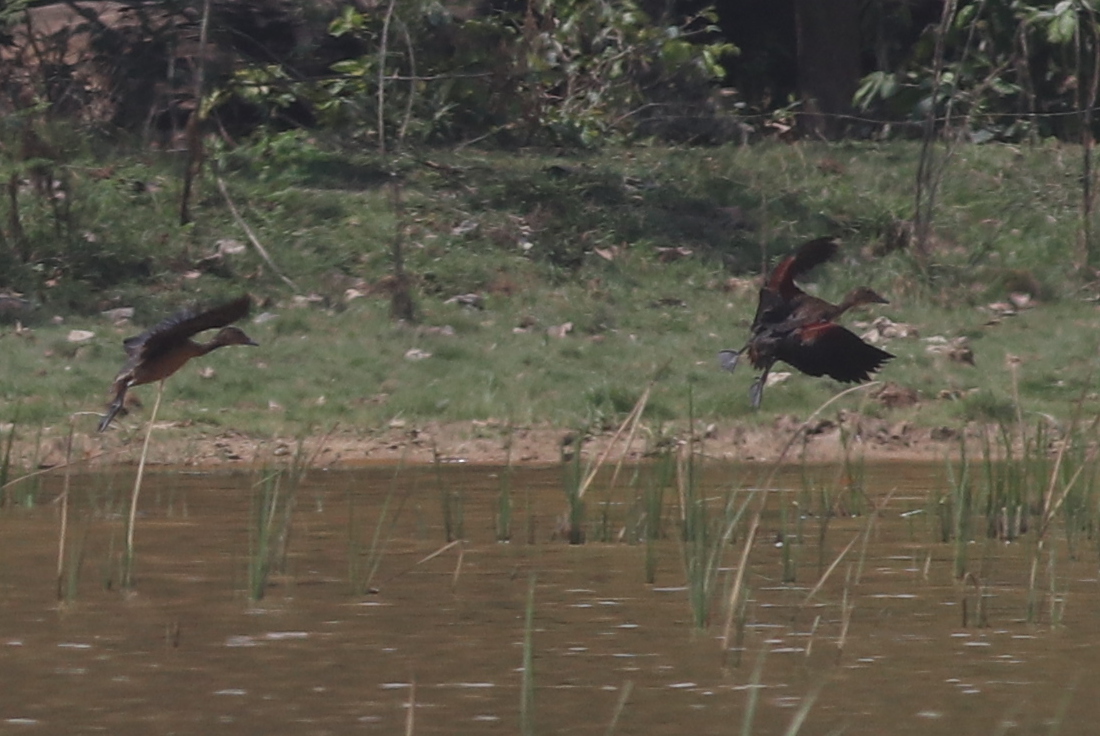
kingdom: Animalia
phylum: Chordata
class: Aves
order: Anseriformes
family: Anatidae
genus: Dendrocygna
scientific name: Dendrocygna javanica
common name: Lesser whistling-duck
